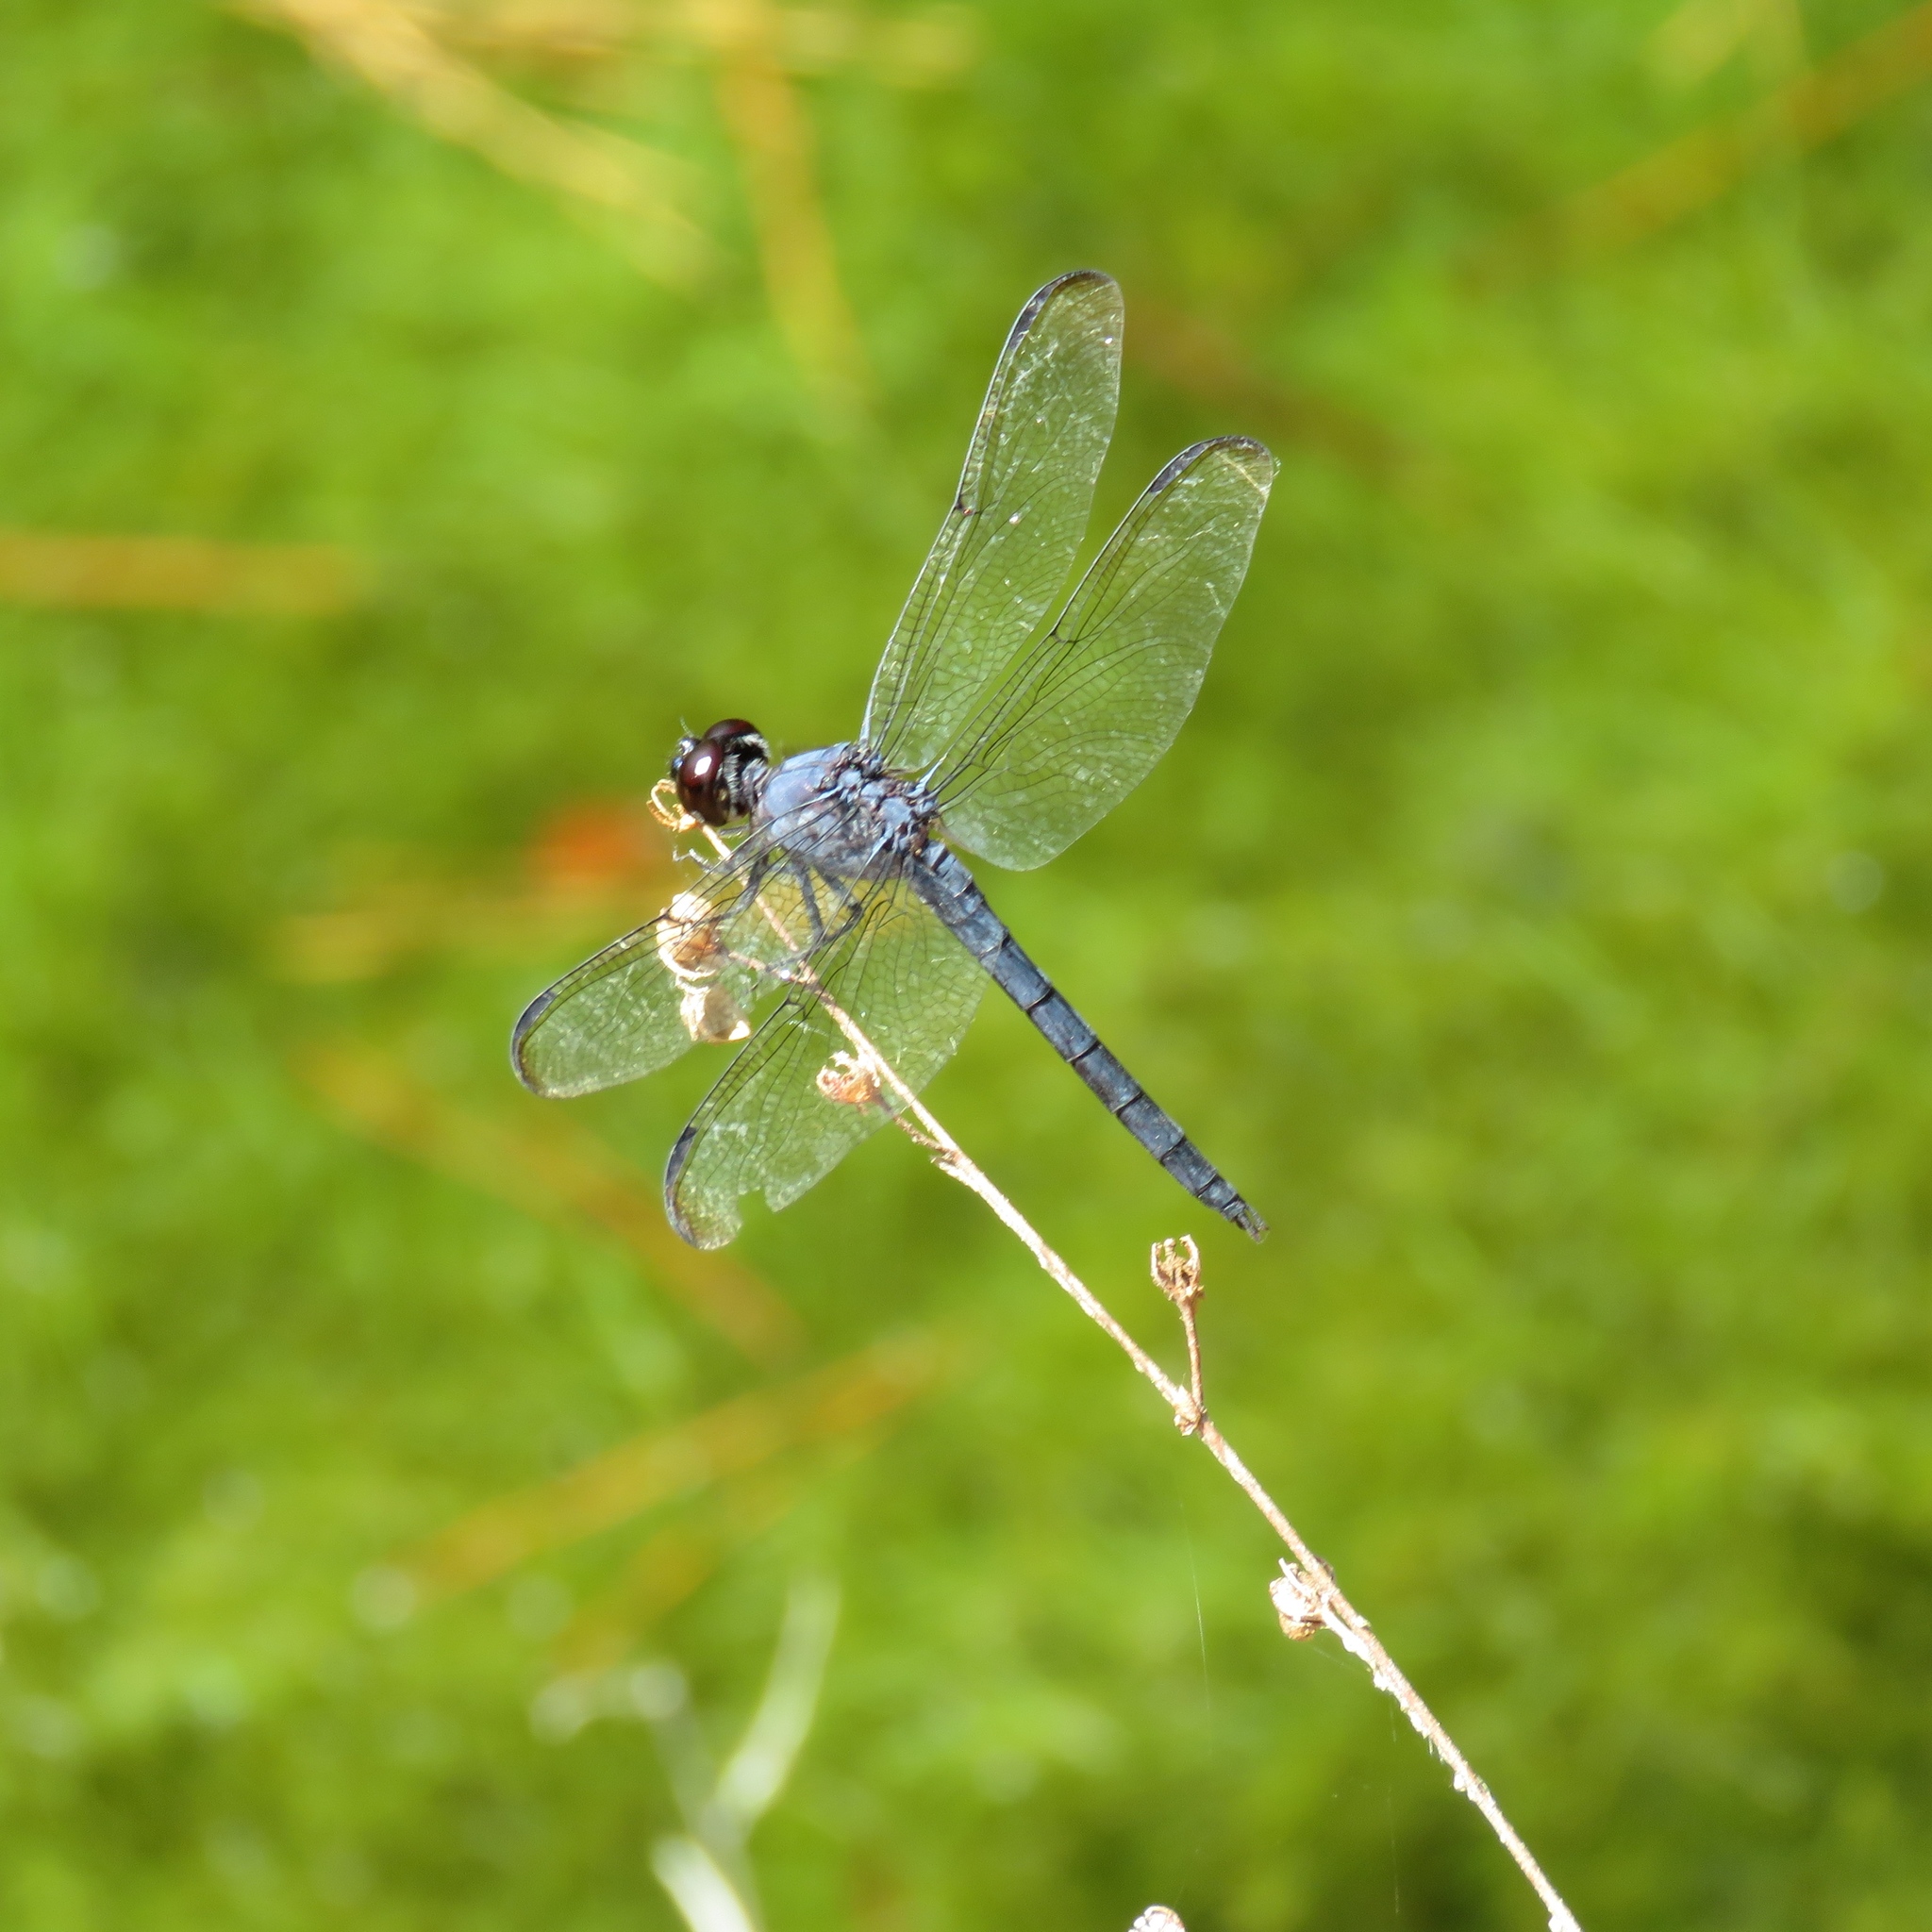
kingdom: Animalia
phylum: Arthropoda
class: Insecta
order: Odonata
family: Libellulidae
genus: Libellula
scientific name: Libellula incesta
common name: Slaty skimmer
